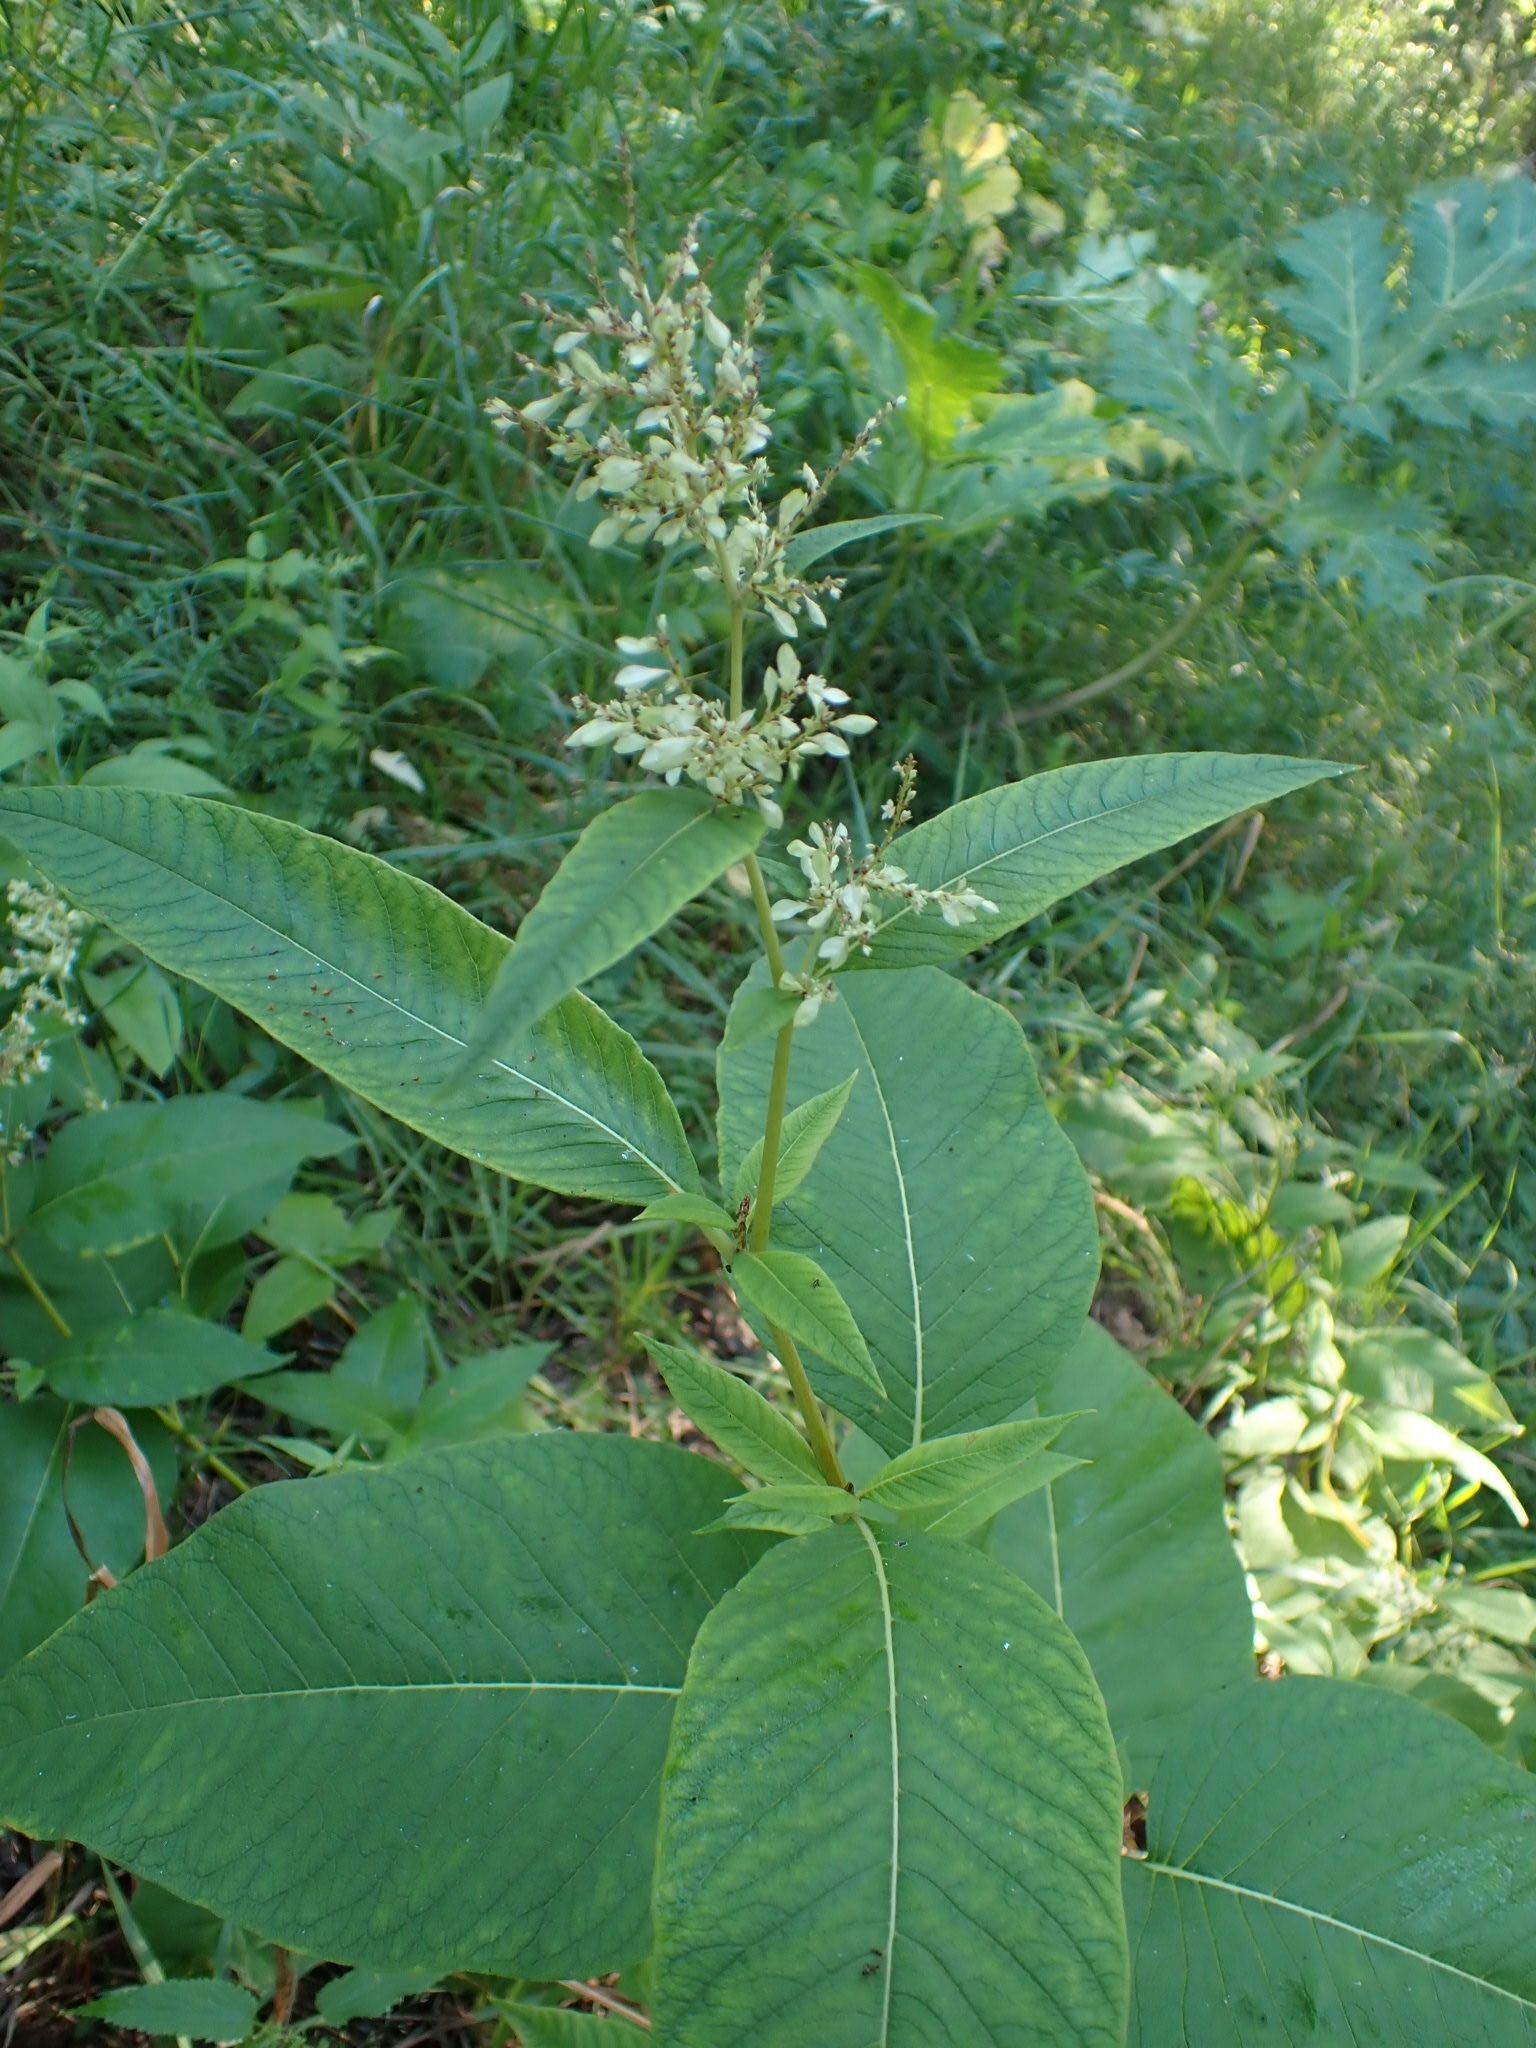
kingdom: Plantae
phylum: Tracheophyta
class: Magnoliopsida
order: Caryophyllales
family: Polygonaceae
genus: Koenigia
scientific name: Koenigia weyrichii
